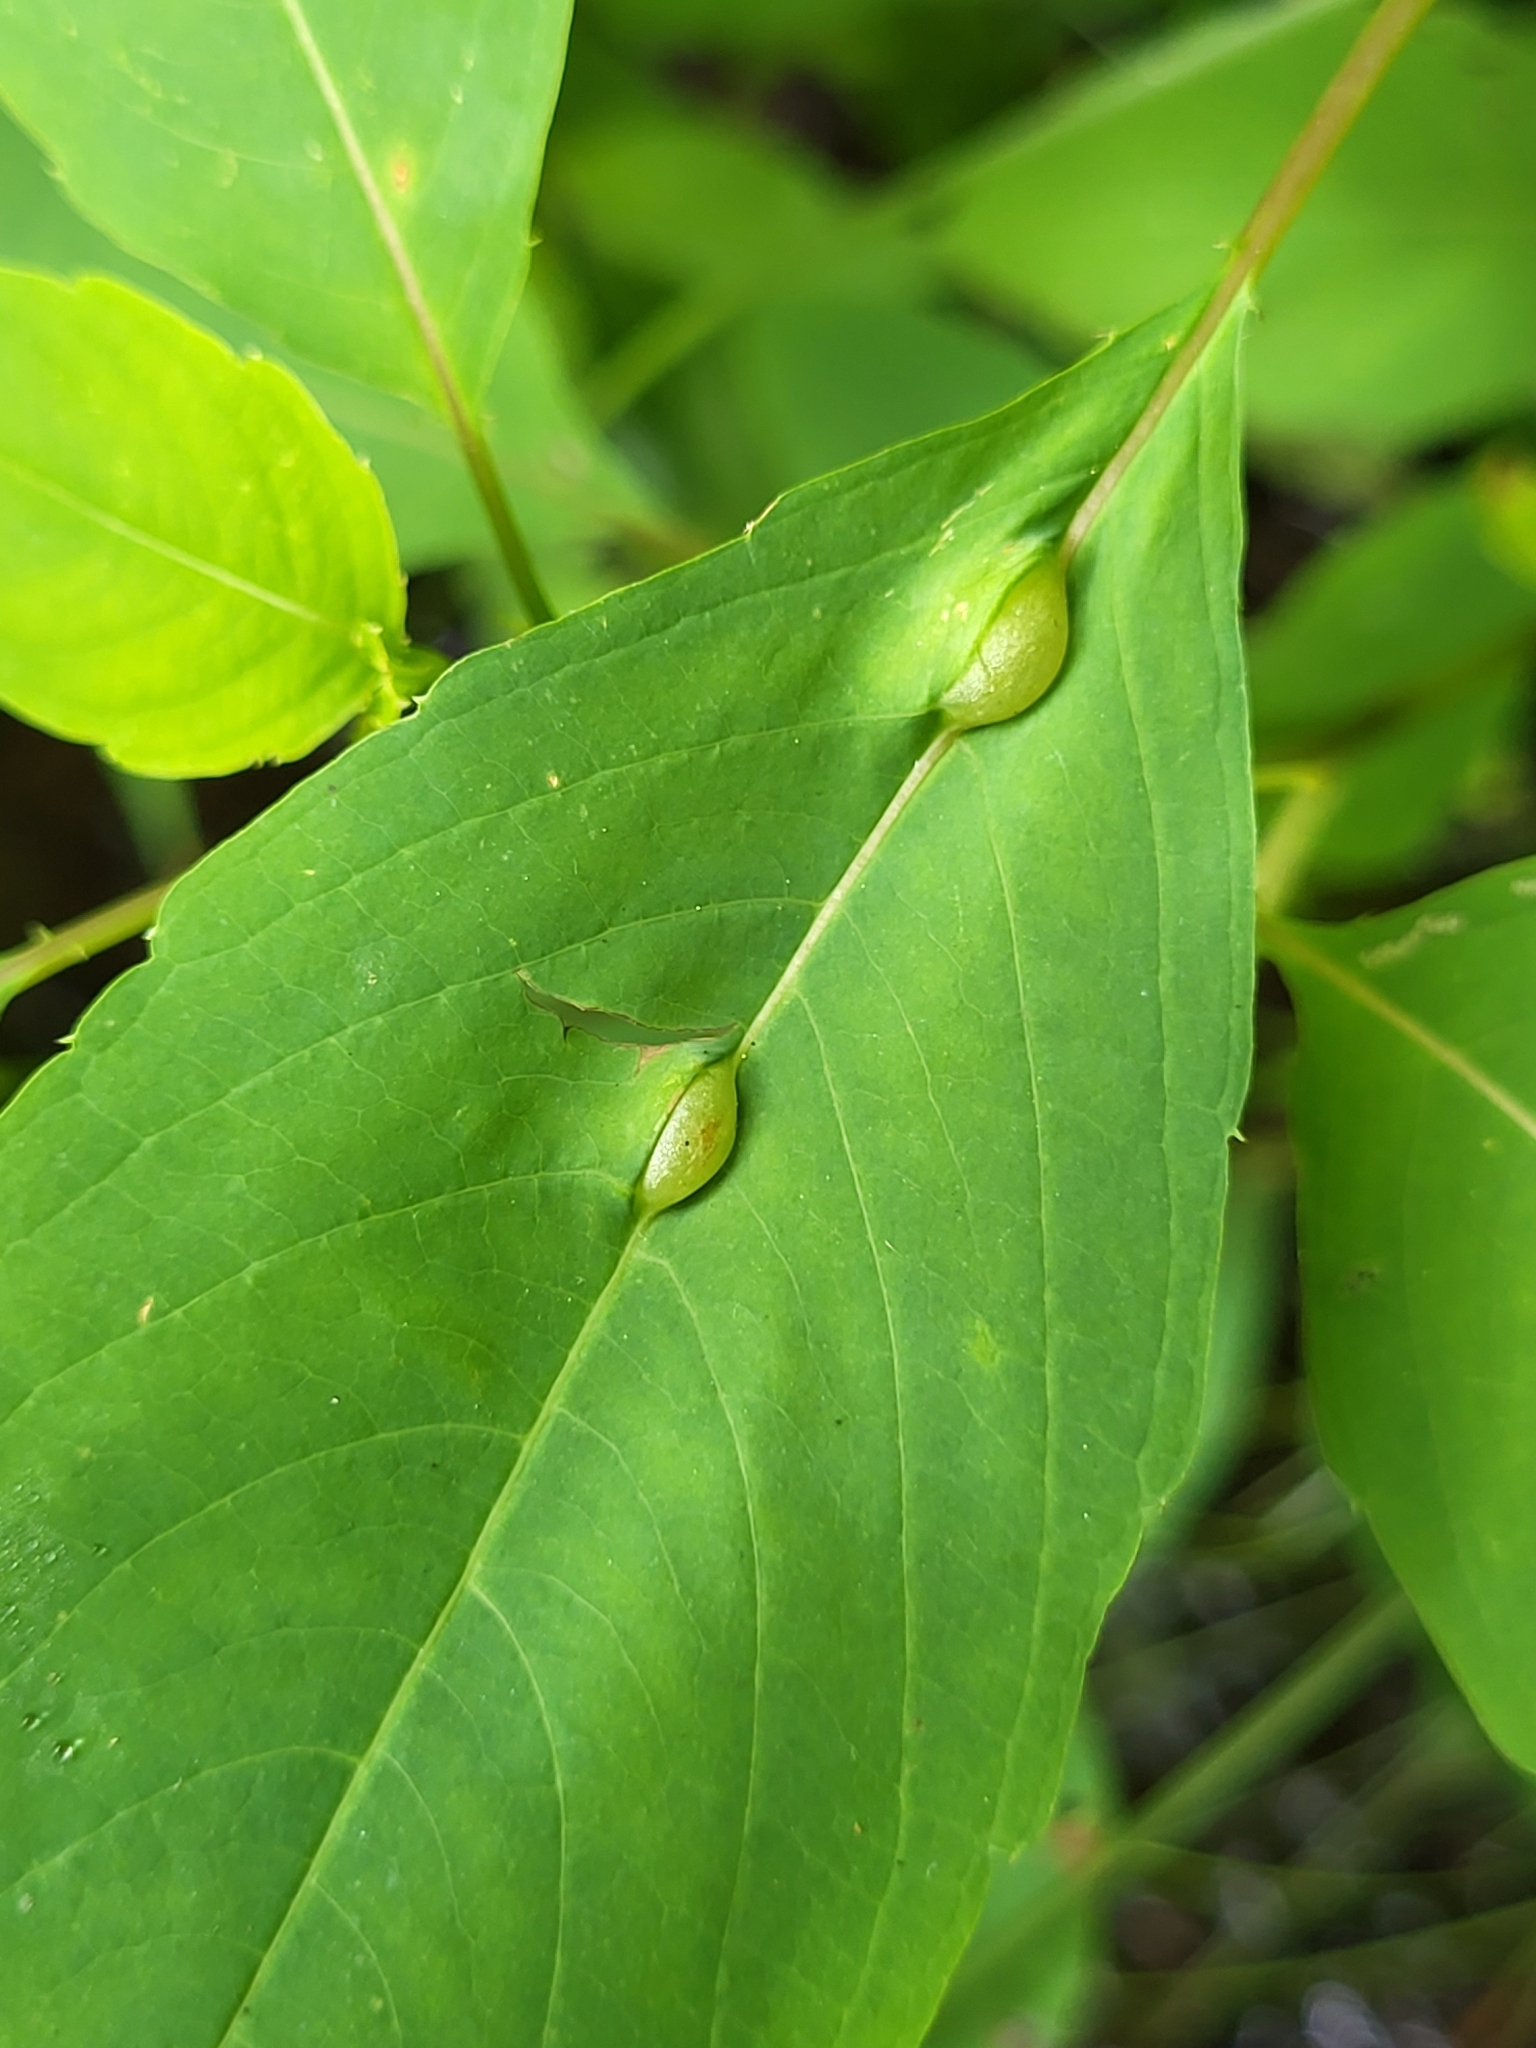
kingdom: Animalia
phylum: Arthropoda
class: Insecta
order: Diptera
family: Cecidomyiidae
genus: Neolasioptera
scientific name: Neolasioptera impatientifolia
